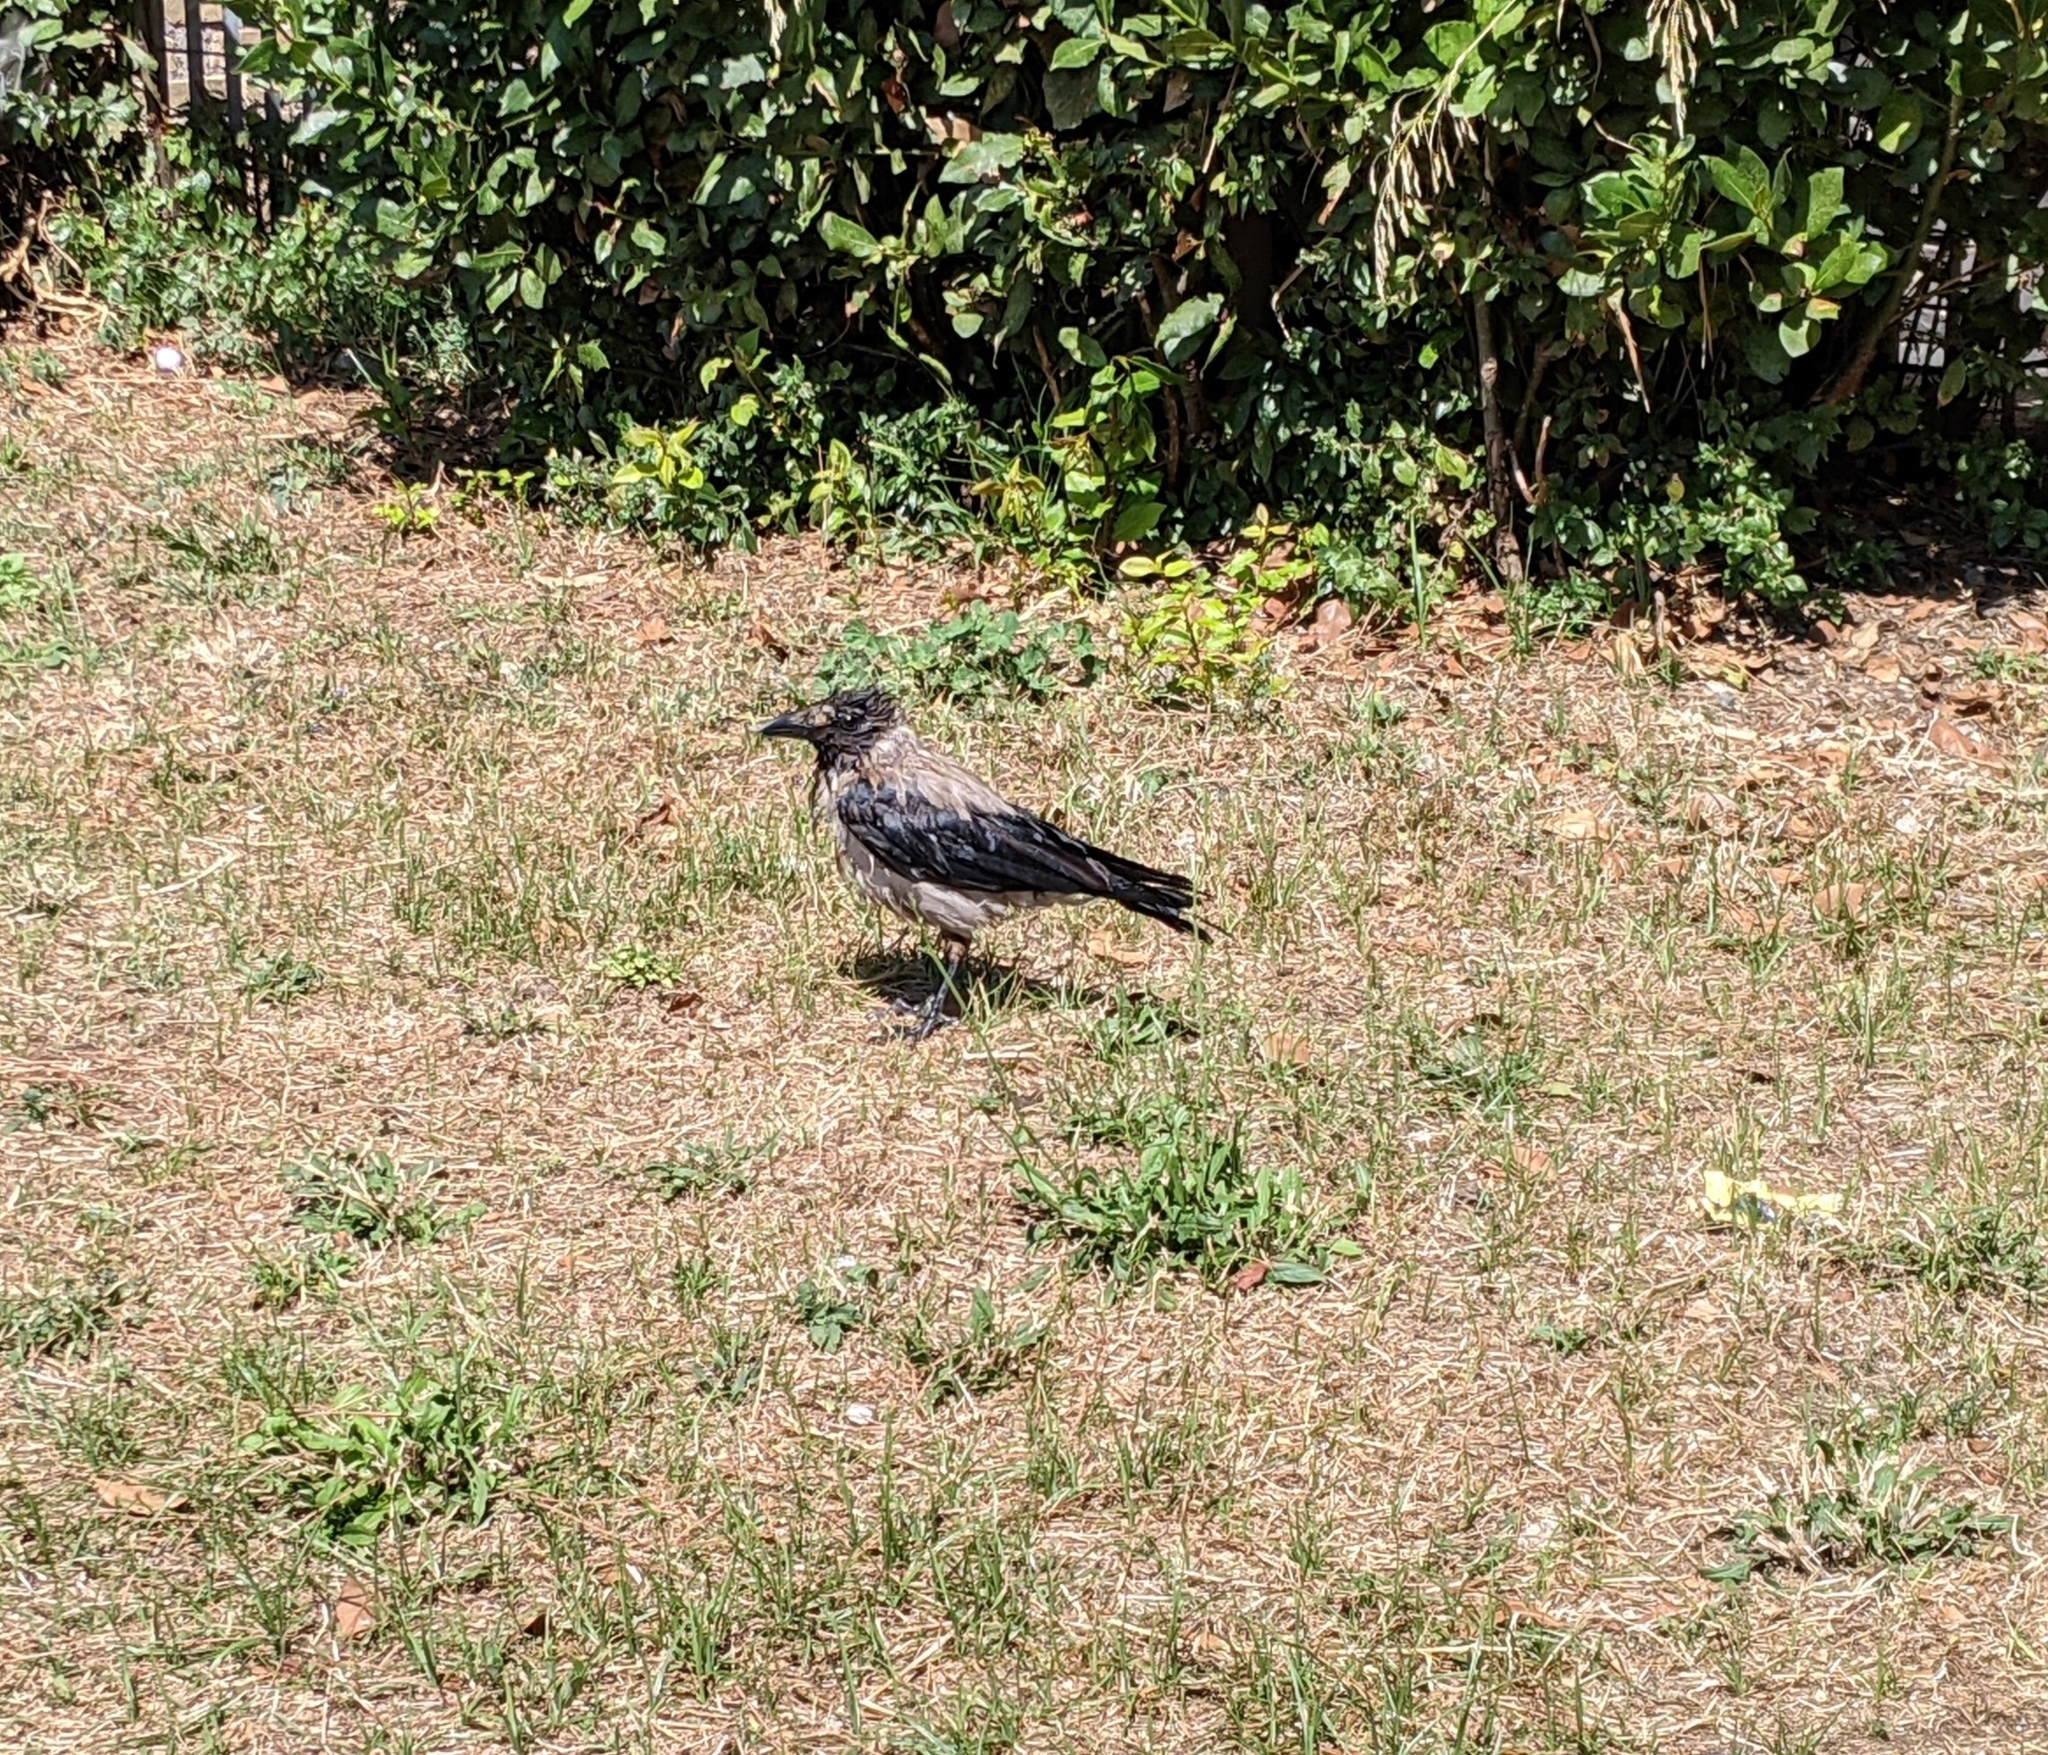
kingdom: Animalia
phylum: Chordata
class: Aves
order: Passeriformes
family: Corvidae
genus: Corvus
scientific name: Corvus cornix
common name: Hooded crow
